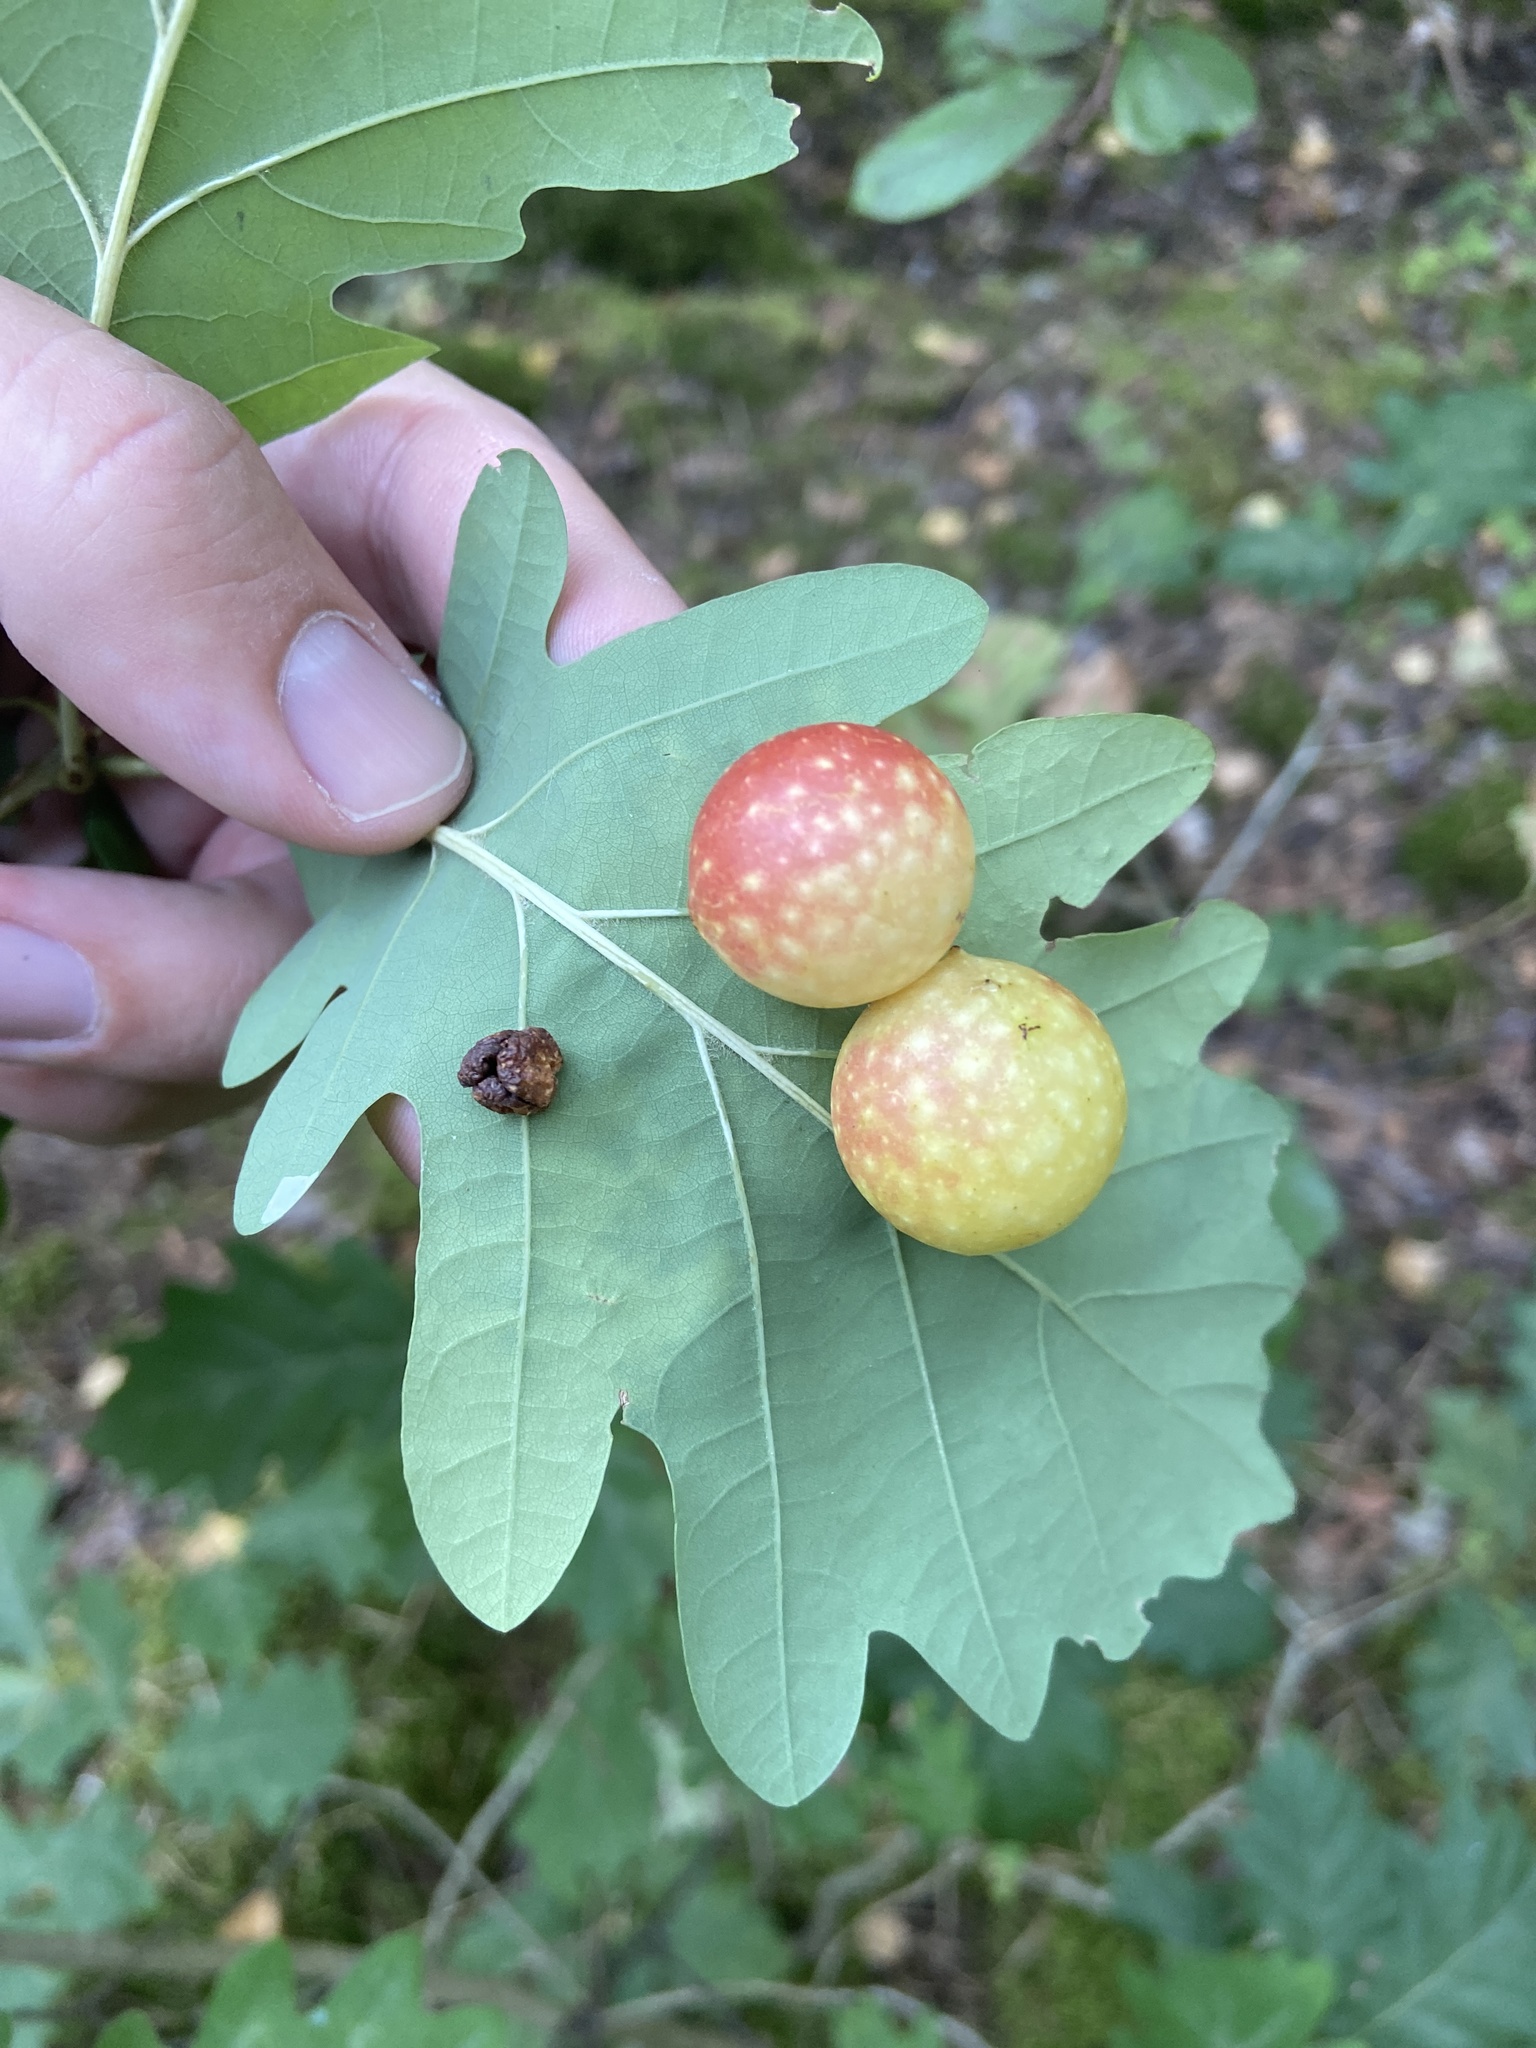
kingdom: Animalia
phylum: Arthropoda
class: Insecta
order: Hymenoptera
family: Cynipidae
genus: Cynips
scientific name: Cynips quercusfolii
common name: Cherry gall
